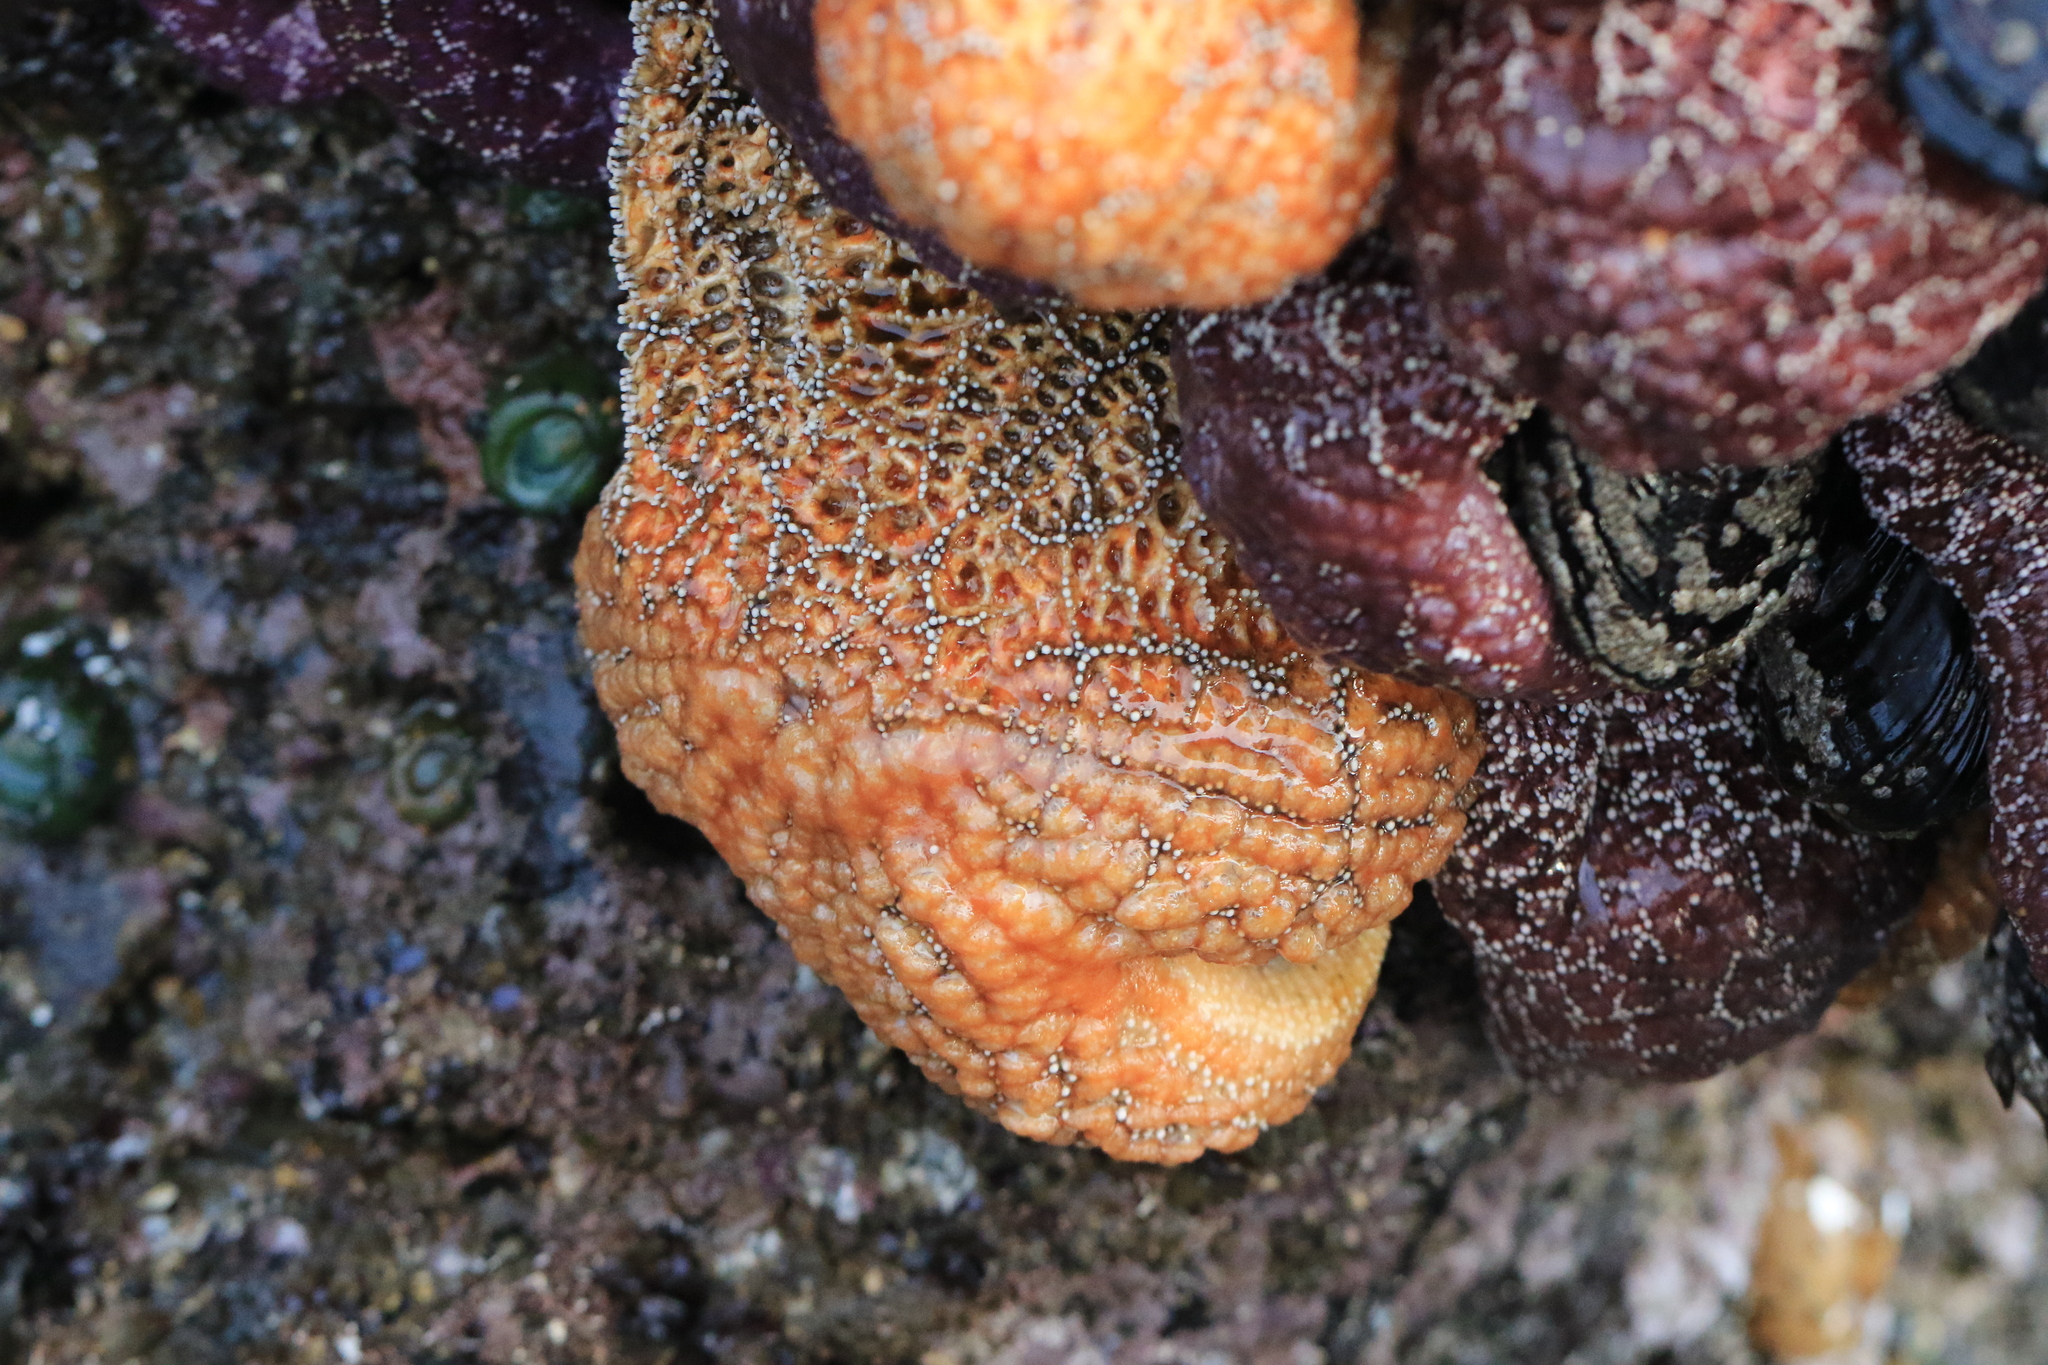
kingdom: Animalia
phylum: Echinodermata
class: Asteroidea
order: Forcipulatida
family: Asteriidae
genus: Pisaster
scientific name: Pisaster ochraceus
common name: Ochre stars
